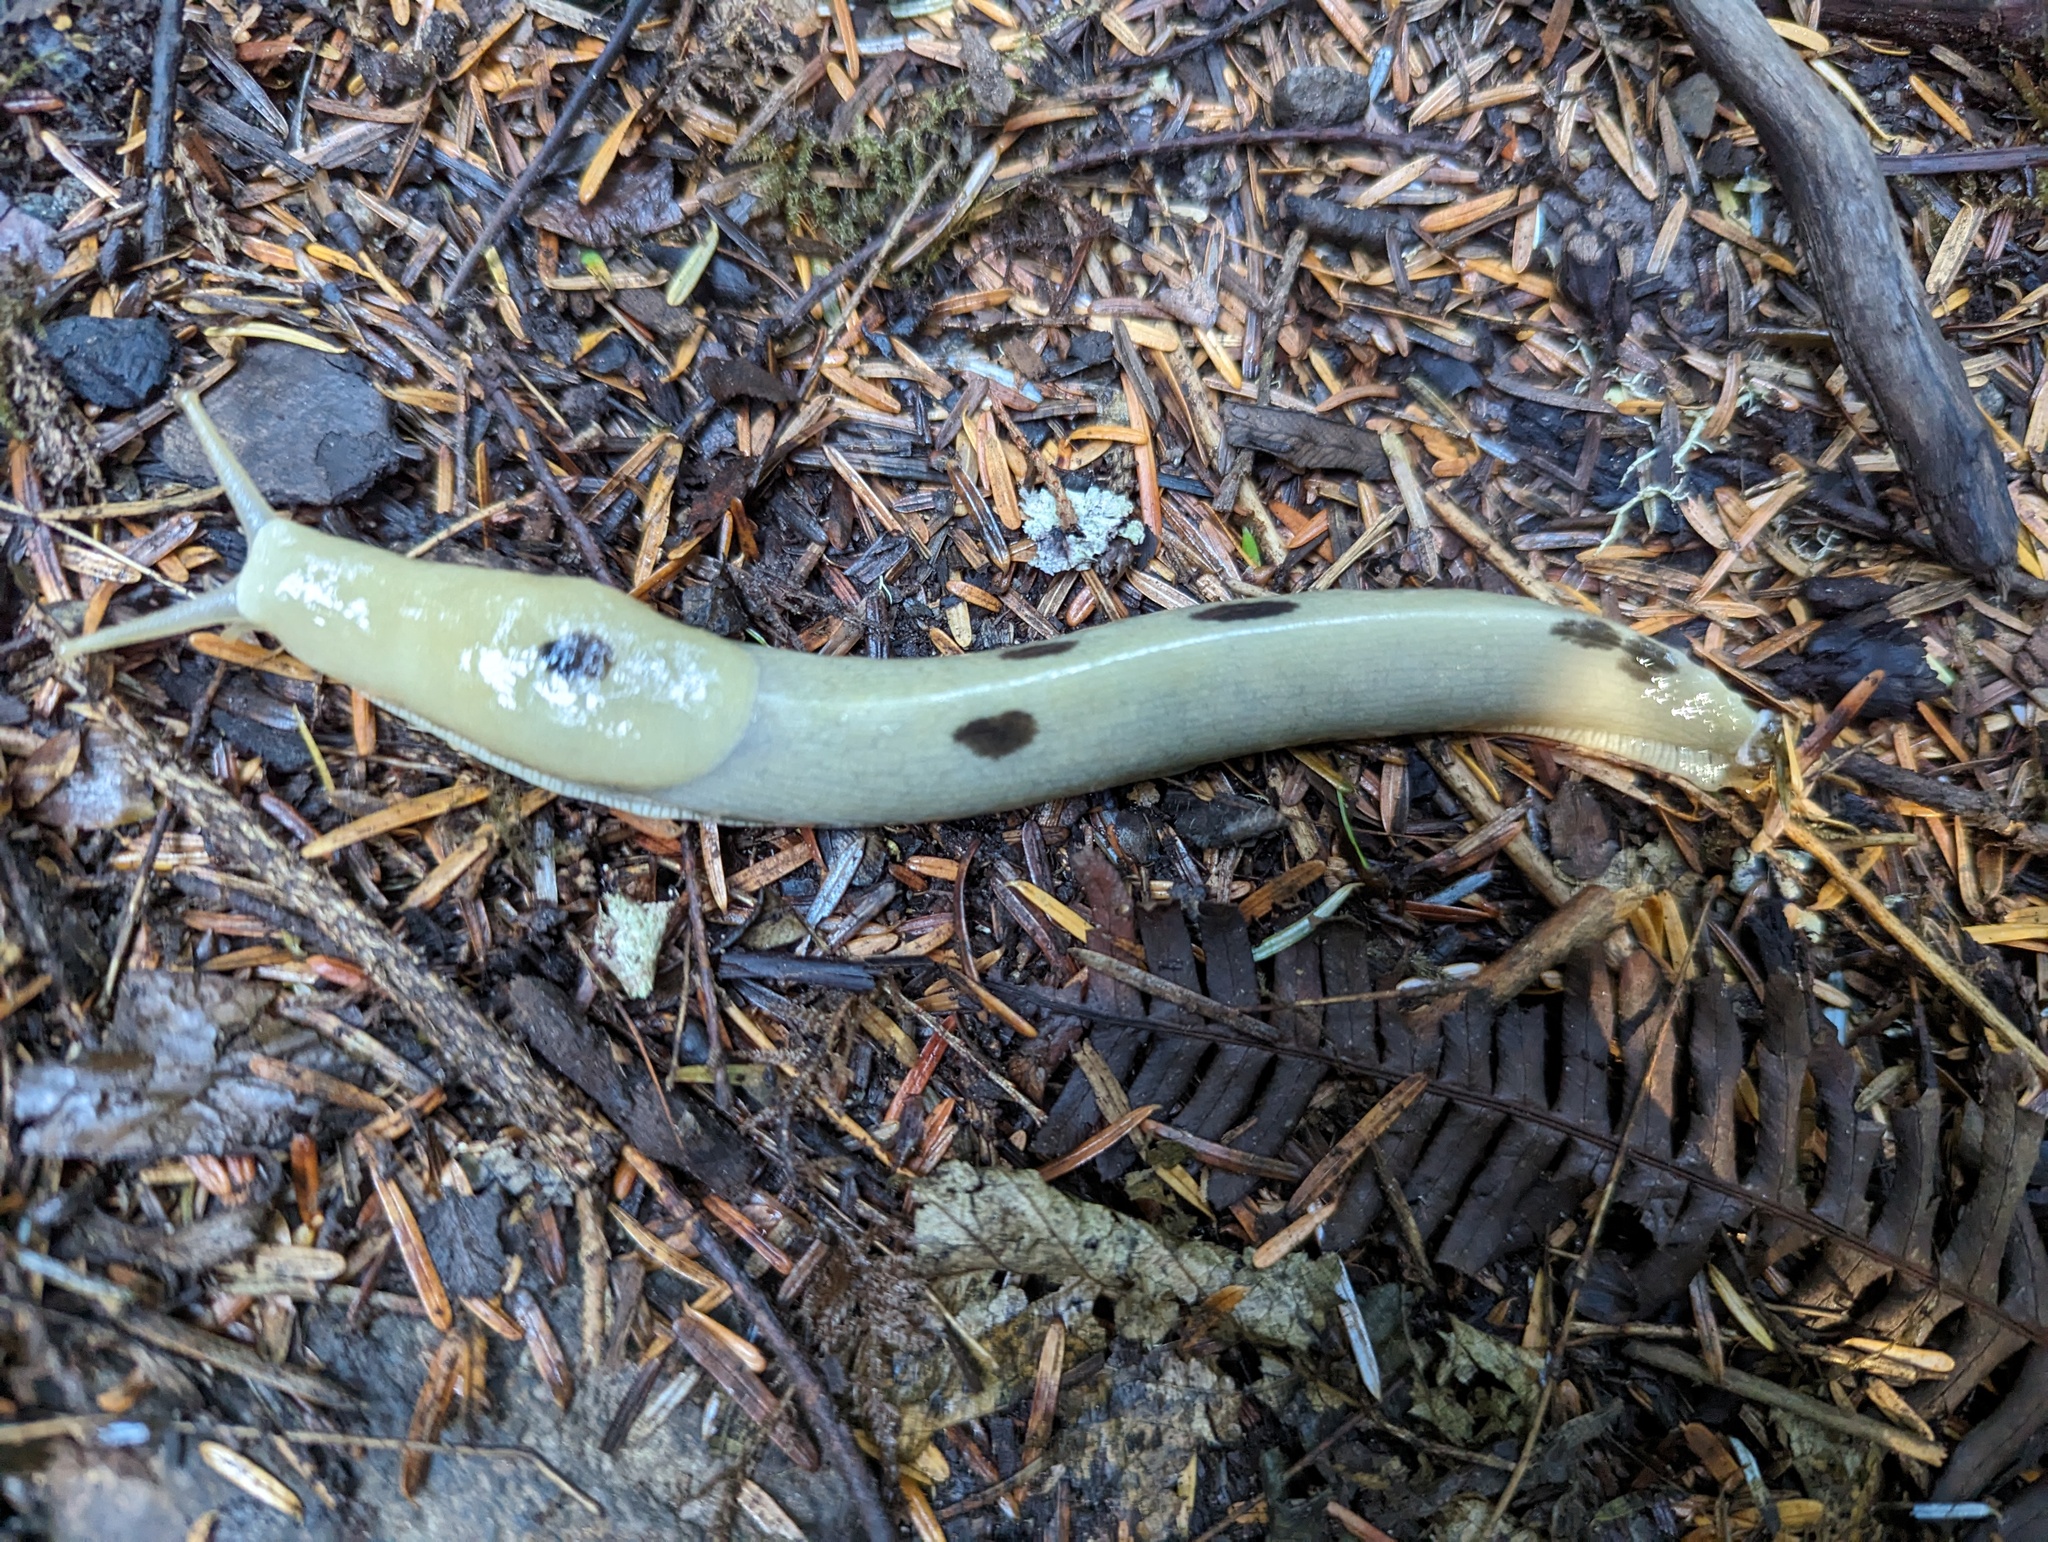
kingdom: Animalia
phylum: Mollusca
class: Gastropoda
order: Stylommatophora
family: Ariolimacidae
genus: Ariolimax
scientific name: Ariolimax columbianus
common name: Pacific banana slug
